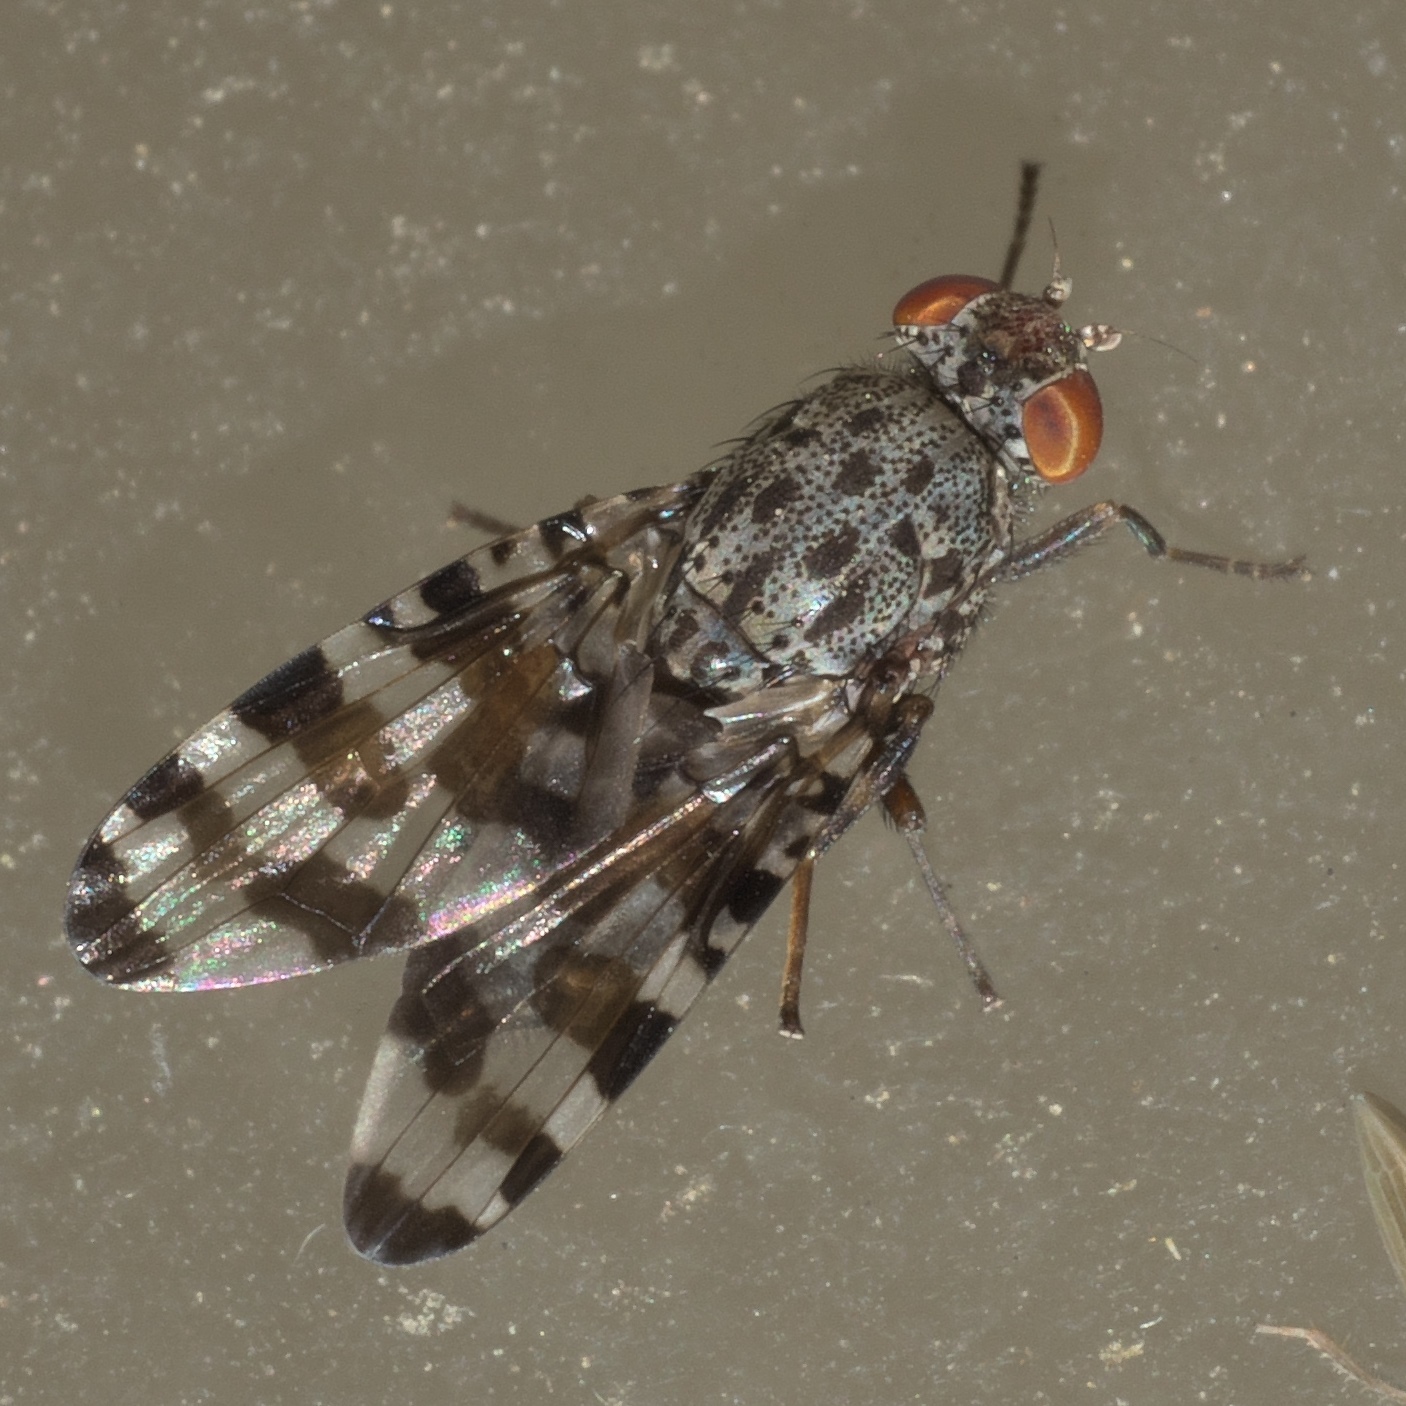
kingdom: Animalia
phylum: Arthropoda
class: Insecta
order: Diptera
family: Ulidiidae
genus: Pseudotephritis
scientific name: Pseudotephritis approximata
